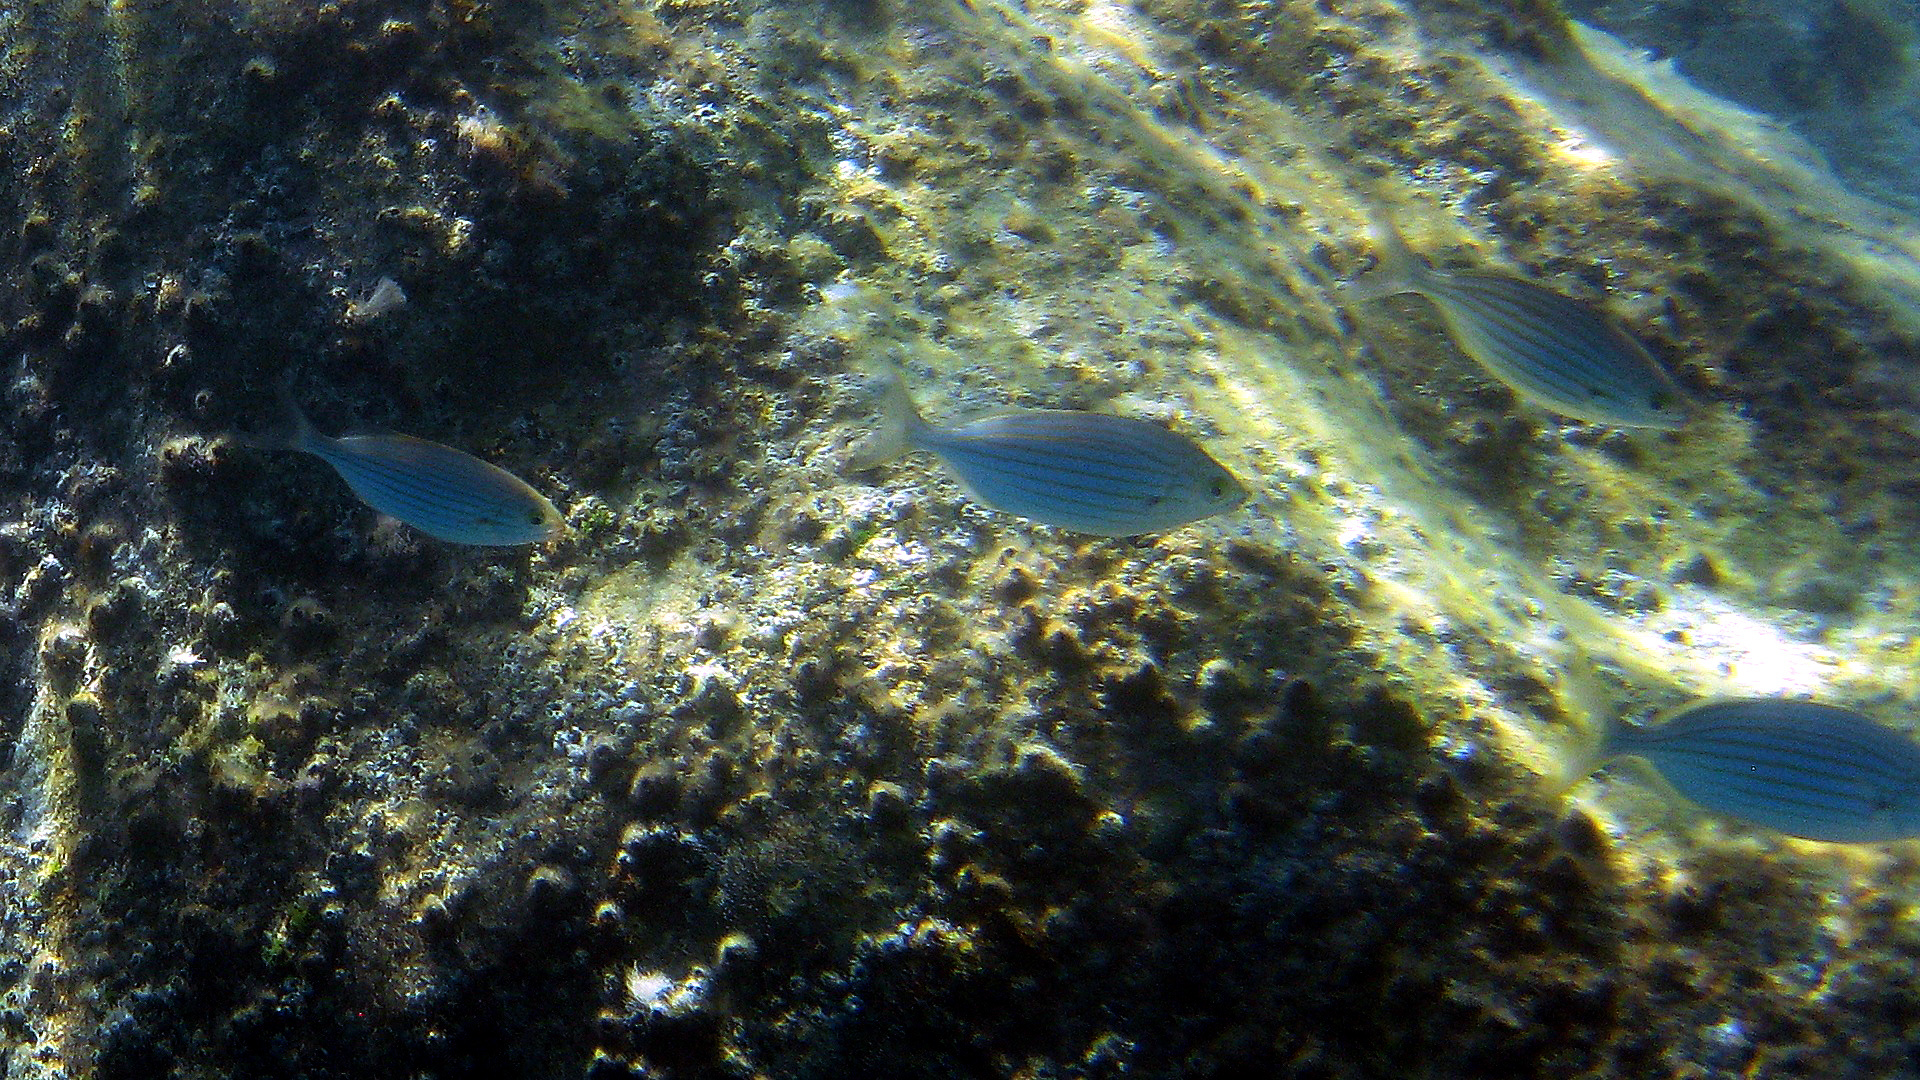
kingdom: Animalia
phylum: Chordata
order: Perciformes
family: Sparidae
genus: Sarpa
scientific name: Sarpa salpa
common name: Salema
